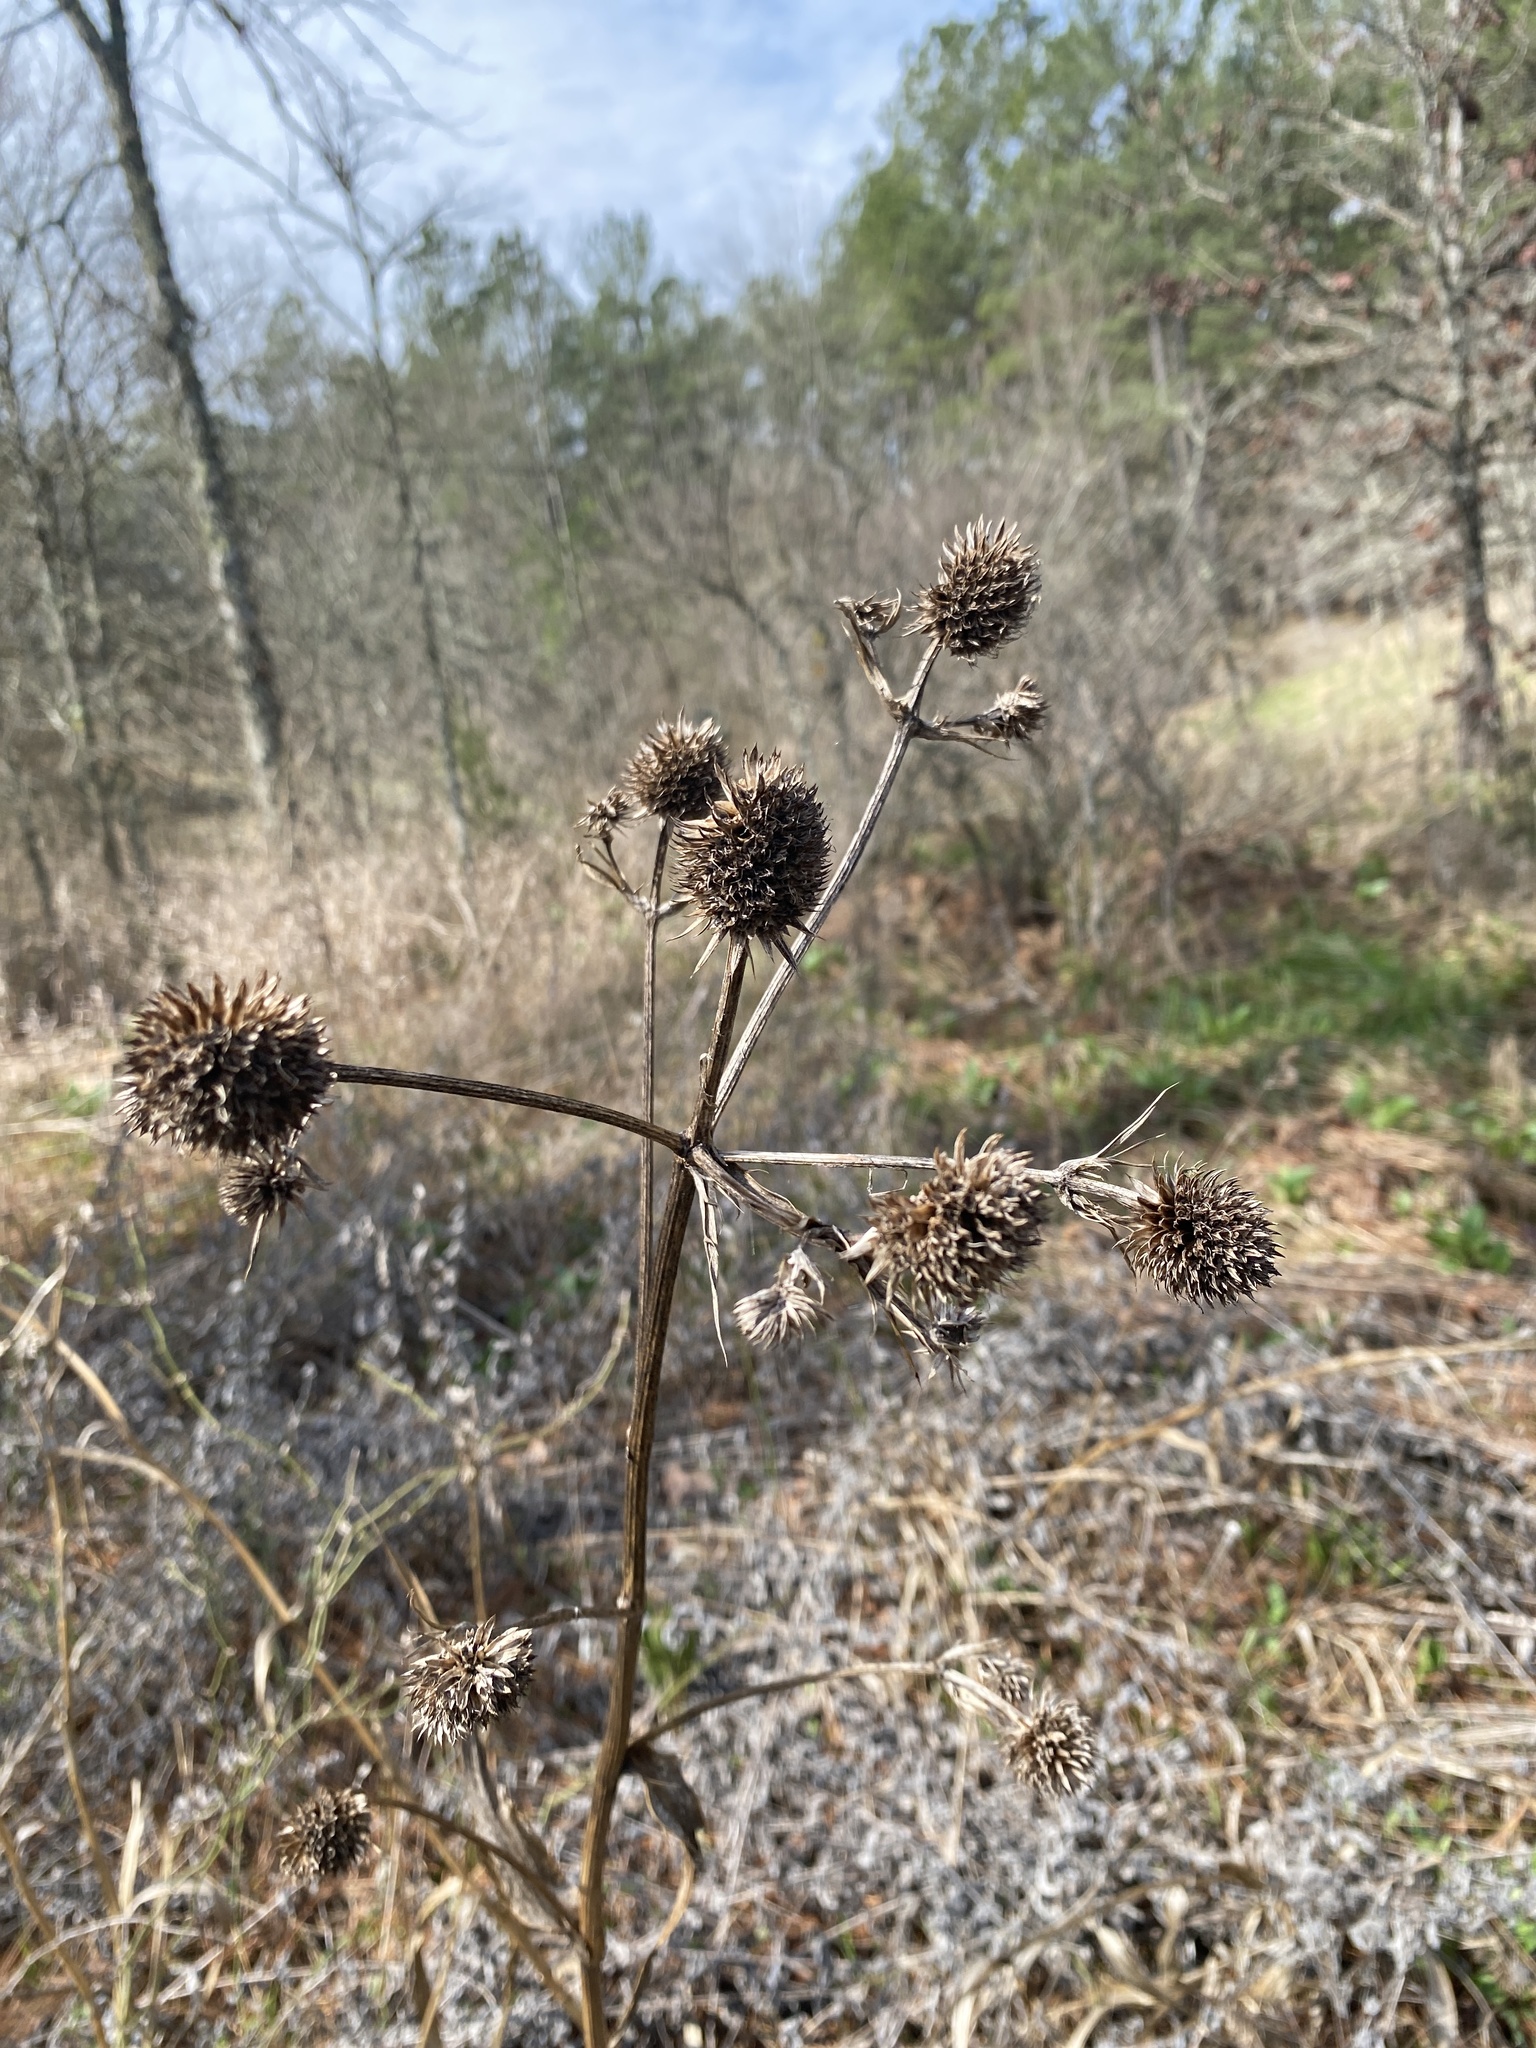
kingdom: Plantae
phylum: Tracheophyta
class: Magnoliopsida
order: Apiales
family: Apiaceae
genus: Eryngium
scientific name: Eryngium yuccifolium
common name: Button eryngo
